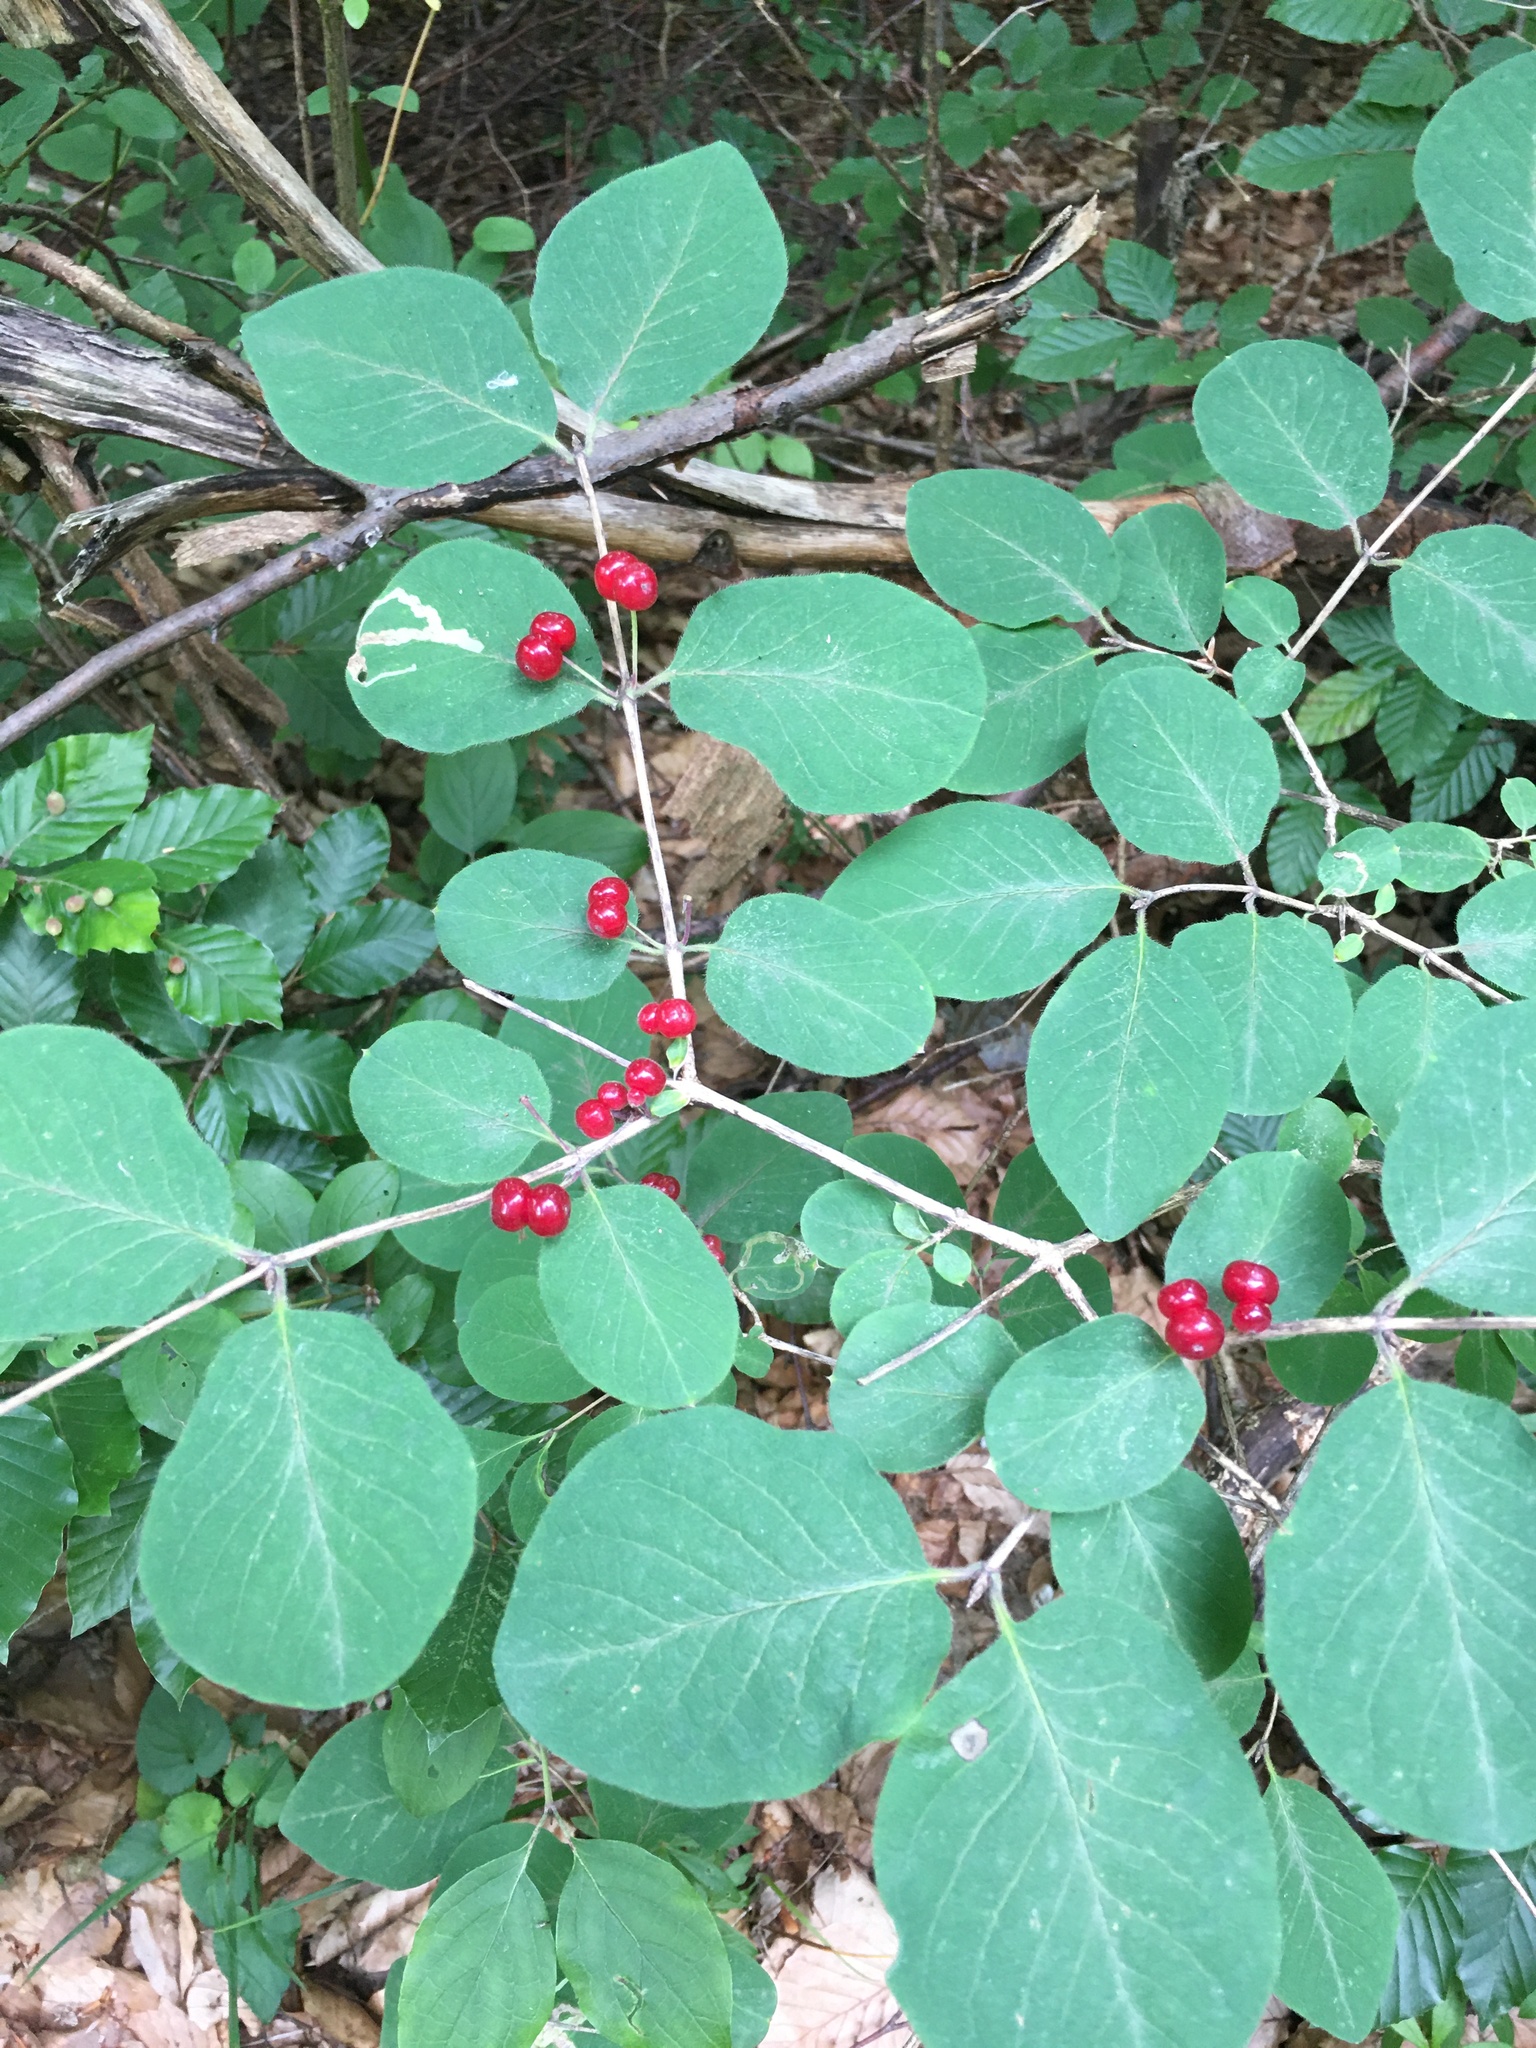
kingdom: Plantae
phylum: Tracheophyta
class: Magnoliopsida
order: Dipsacales
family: Caprifoliaceae
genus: Lonicera
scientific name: Lonicera xylosteum
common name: Fly honeysuckle
